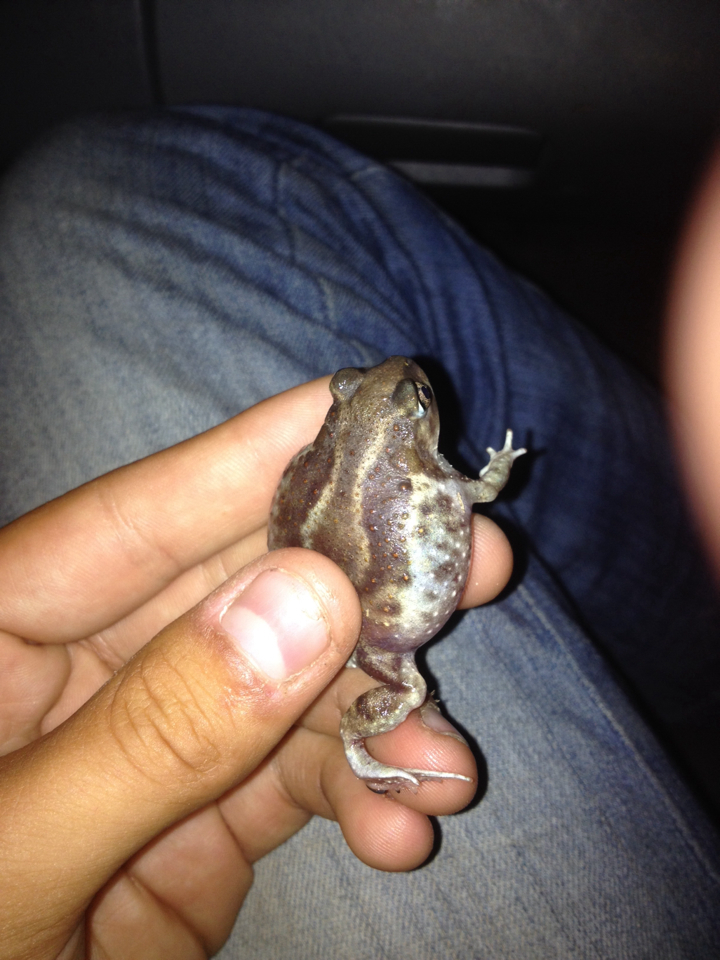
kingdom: Animalia
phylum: Chordata
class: Amphibia
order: Anura
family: Scaphiopodidae
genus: Scaphiopus
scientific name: Scaphiopus hurterii
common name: Hurter's spadefoot toad
